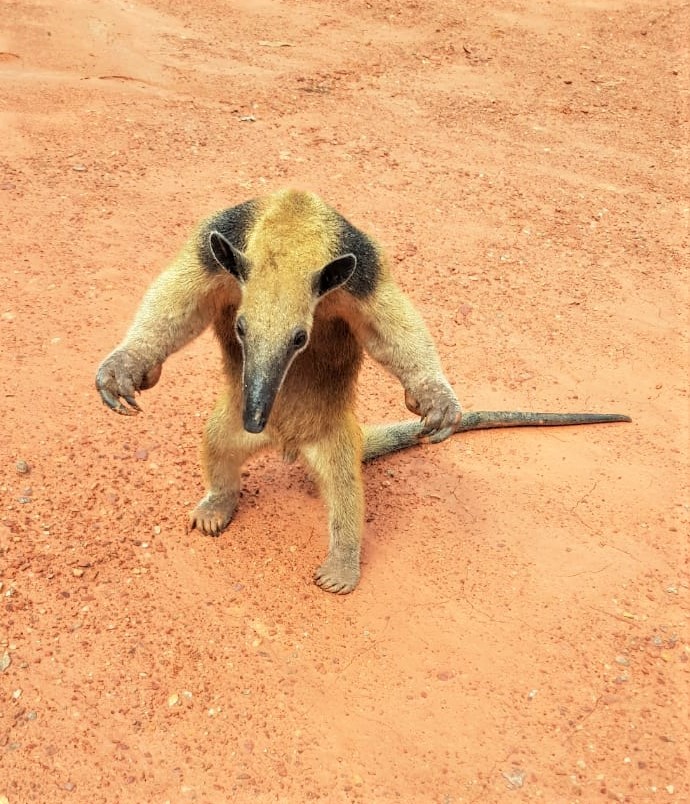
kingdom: Animalia
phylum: Chordata
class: Mammalia
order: Pilosa
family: Myrmecophagidae
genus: Tamandua
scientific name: Tamandua tetradactyla
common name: Southern tamandua
